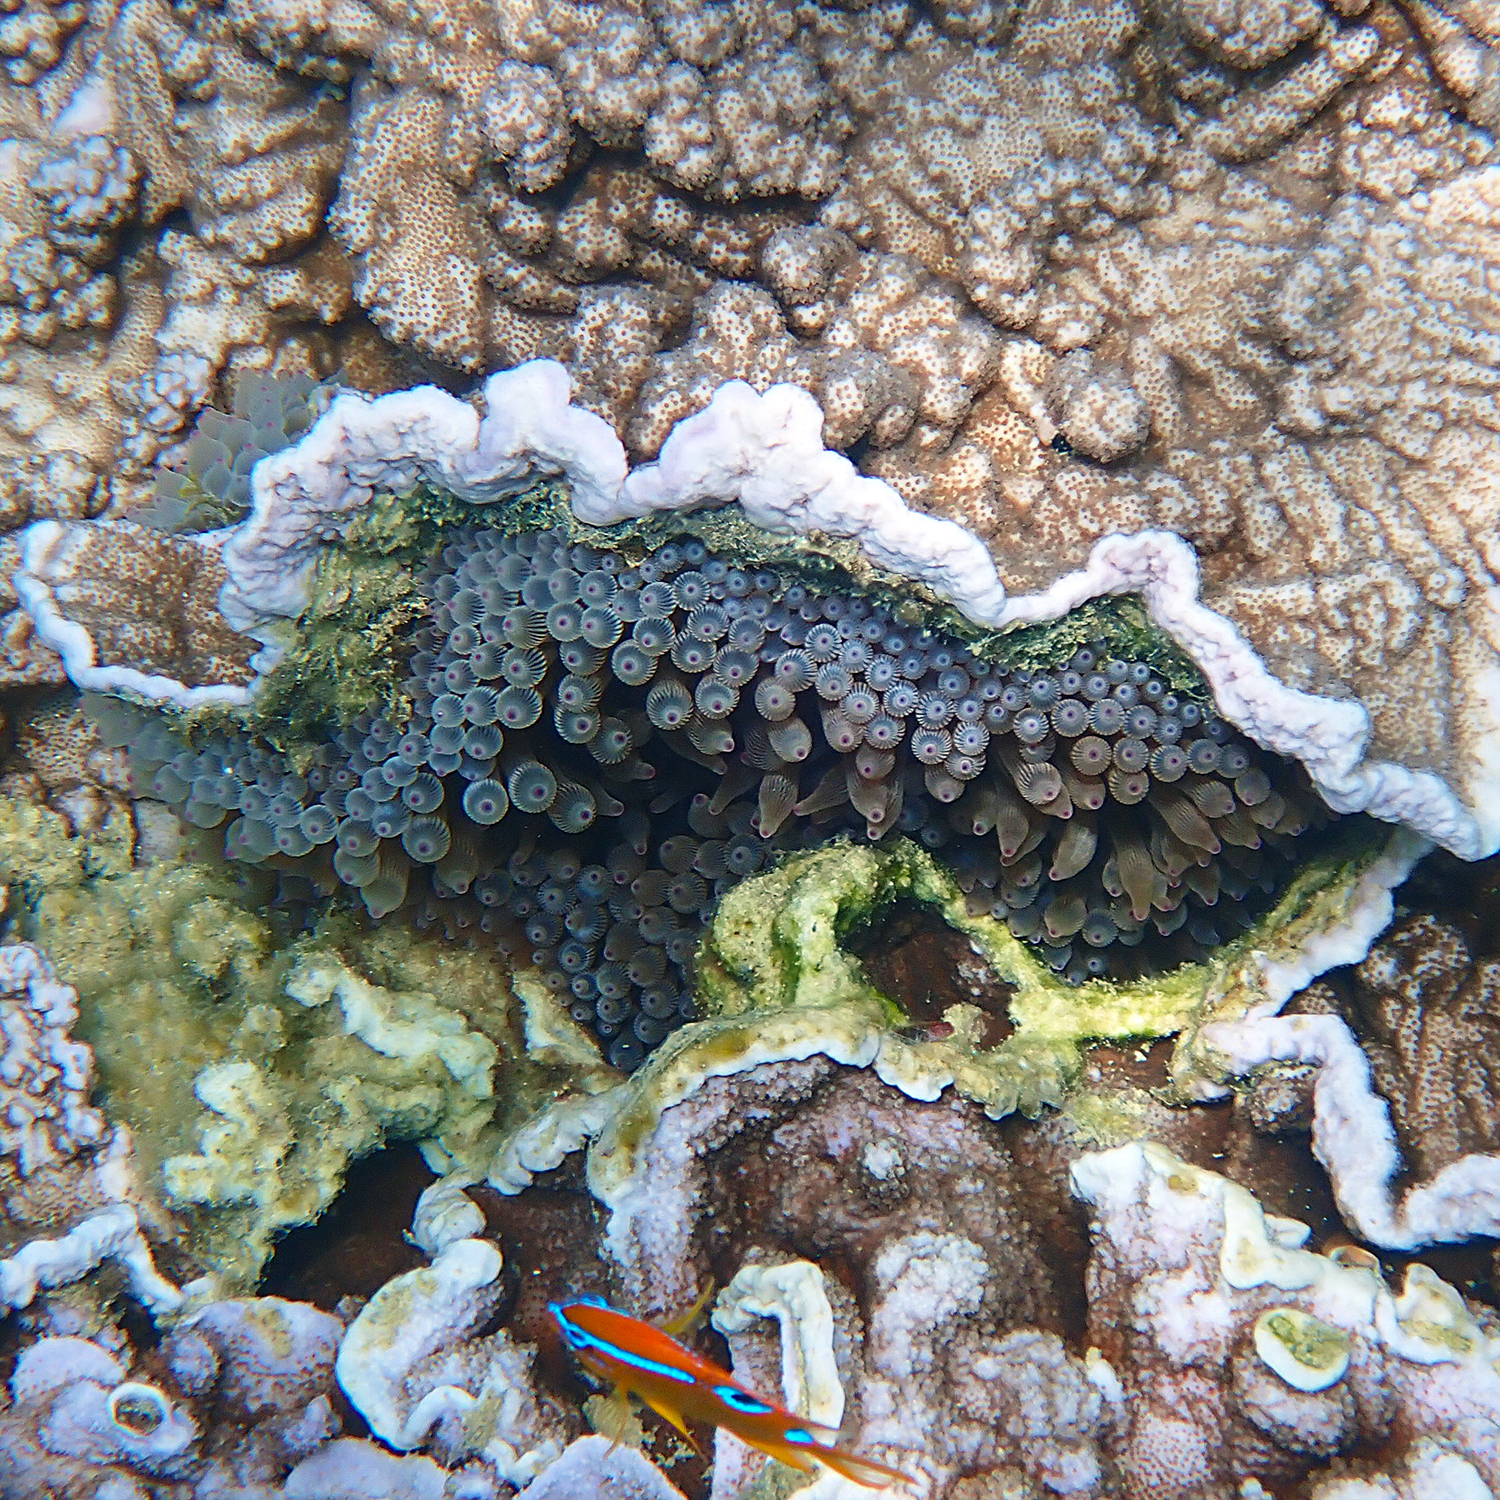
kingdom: Animalia
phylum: Cnidaria
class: Anthozoa
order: Actiniaria
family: Actiniidae
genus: Entacmaea
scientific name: Entacmaea quadricolor
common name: Bulb tentacle sea anemone
